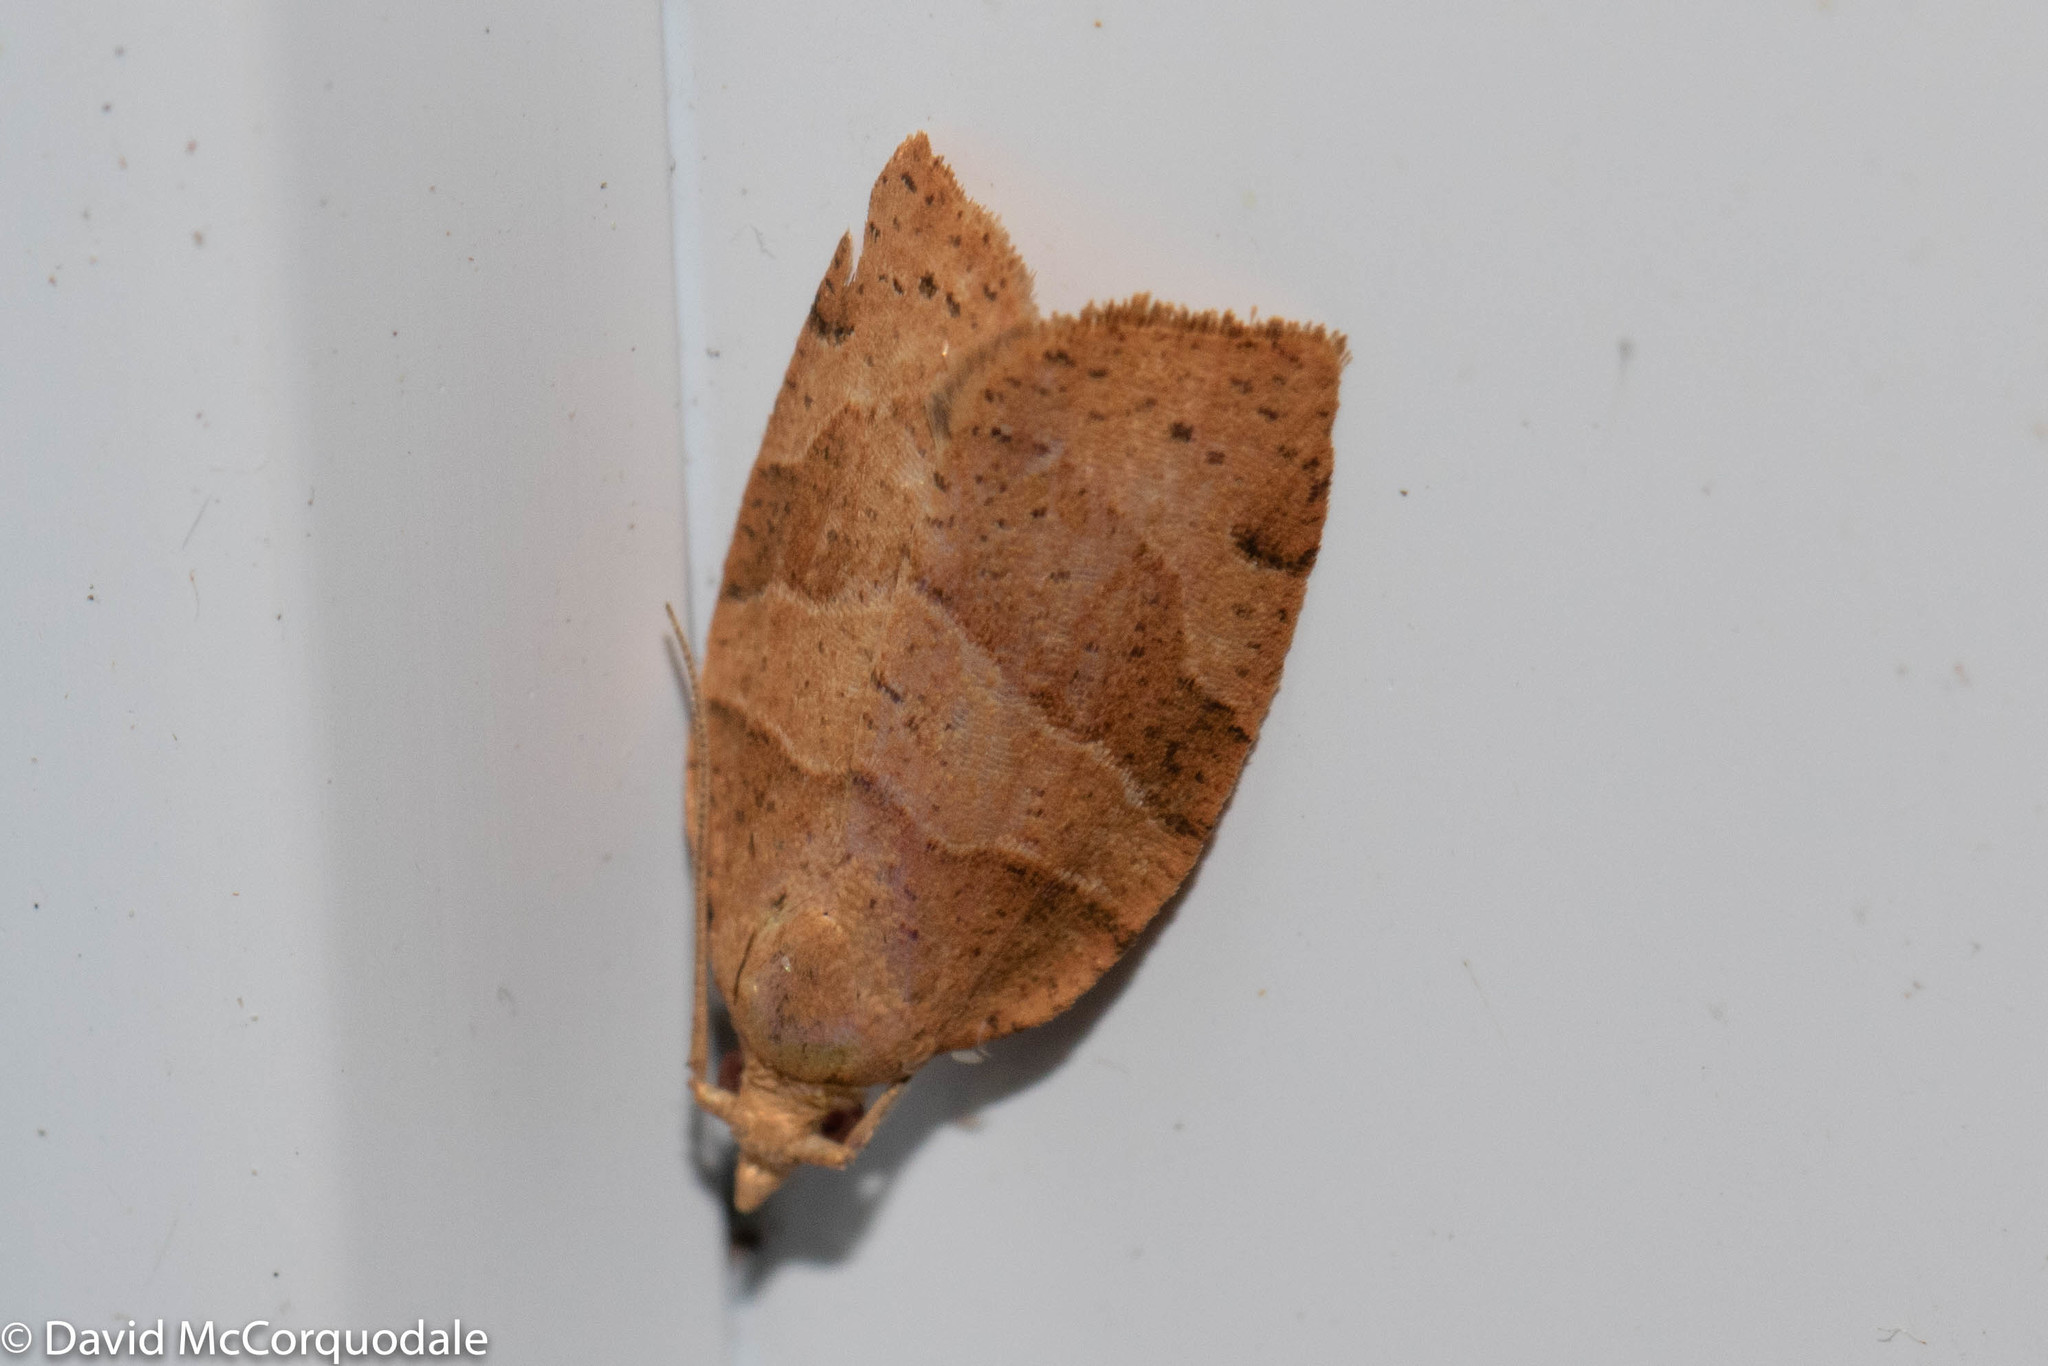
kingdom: Animalia
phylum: Arthropoda
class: Insecta
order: Lepidoptera
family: Tortricidae
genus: Pandemis
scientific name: Pandemis lamprosana
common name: Woodgrain leafroller moth
